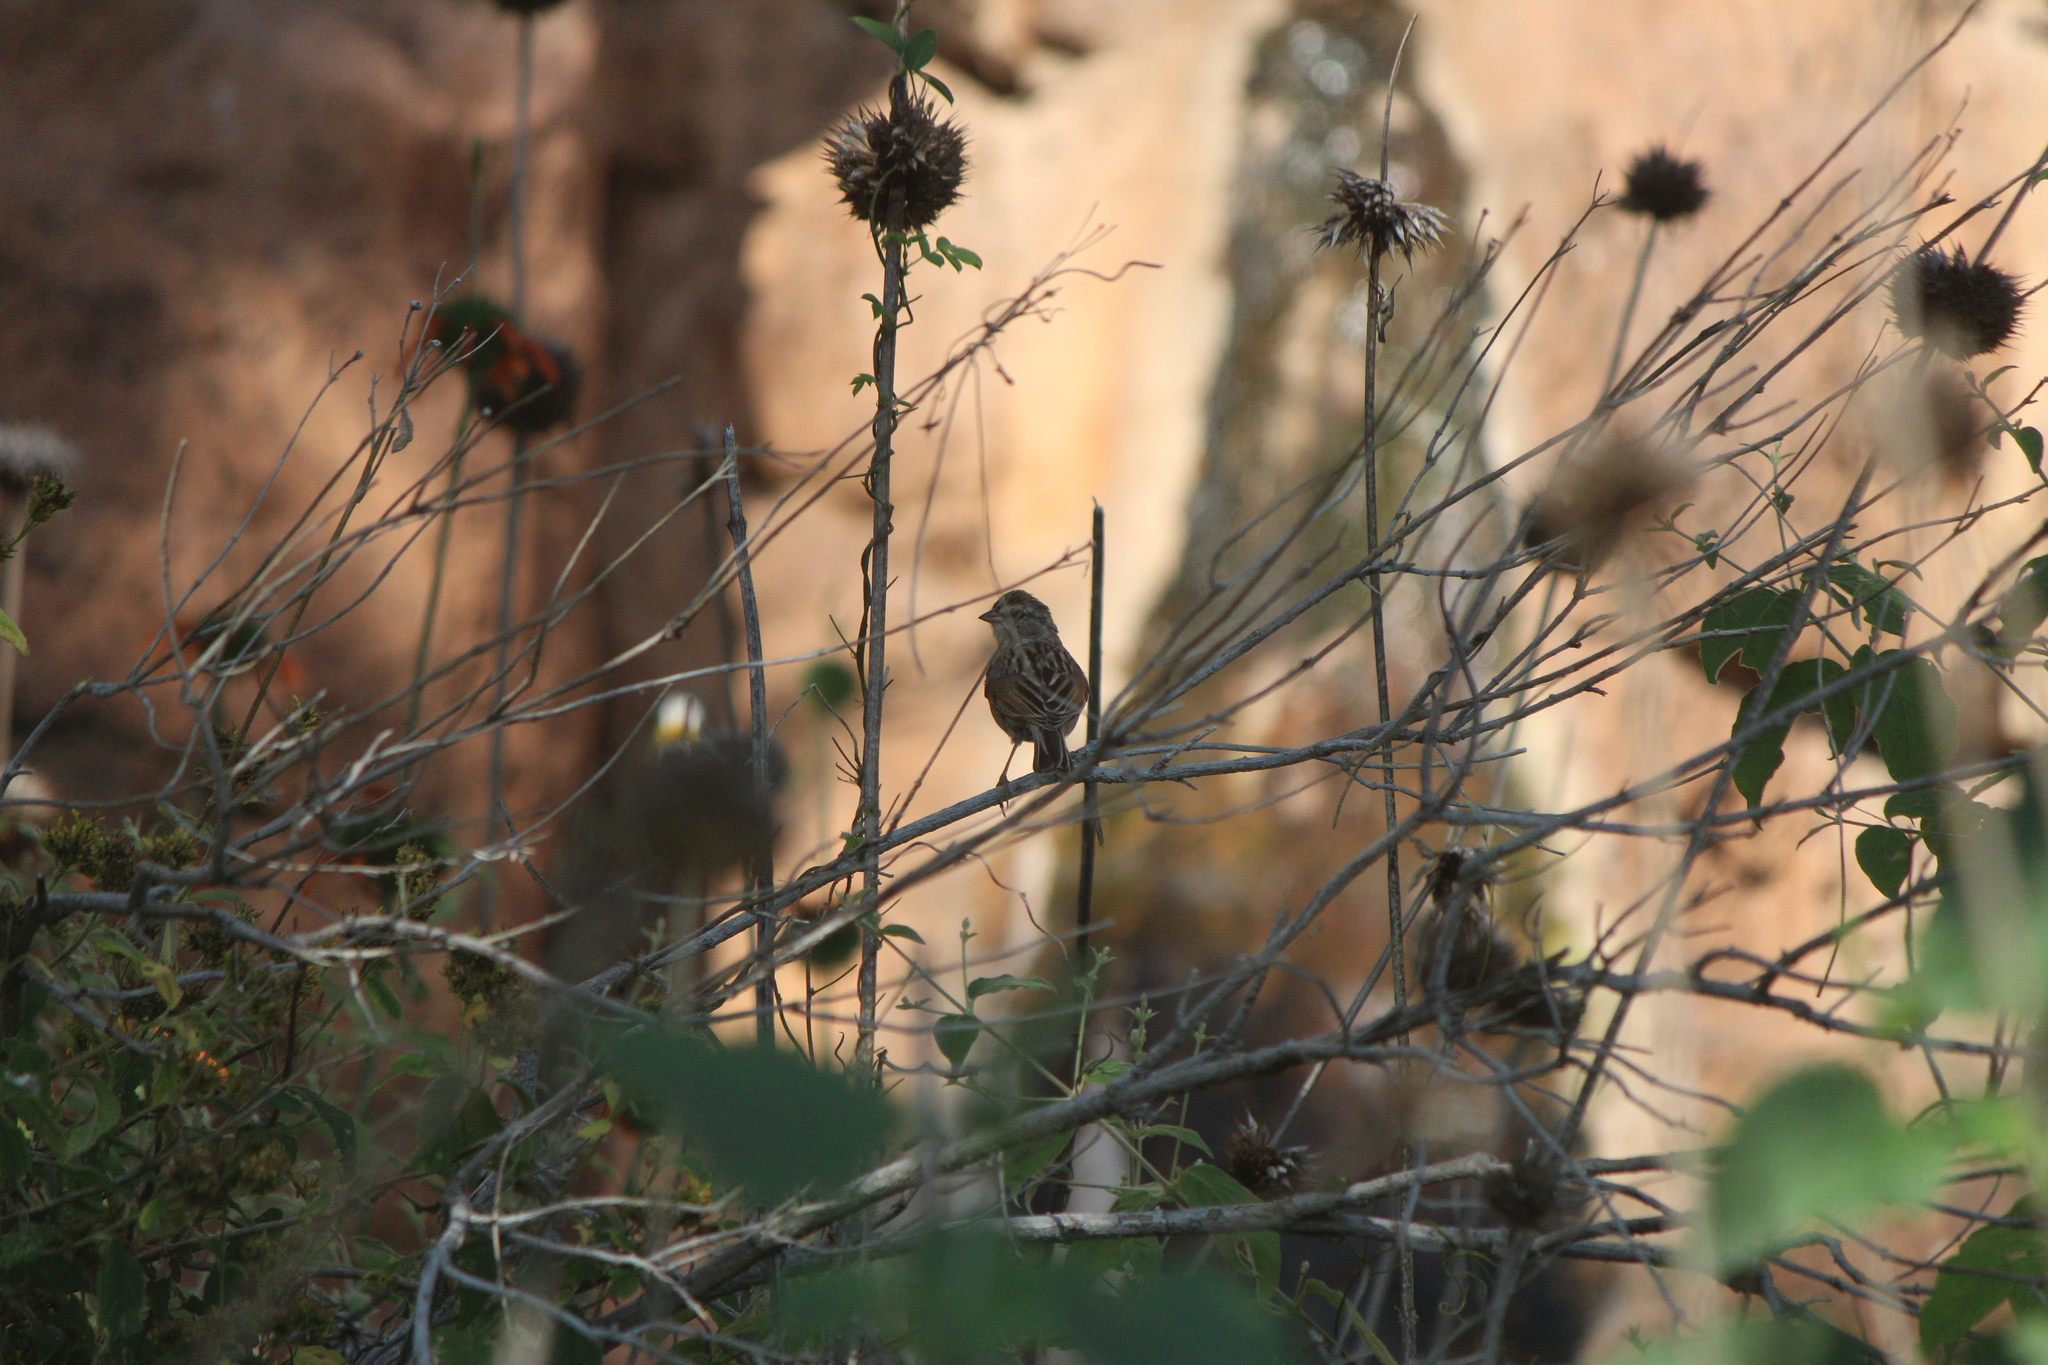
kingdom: Animalia
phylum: Chordata
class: Aves
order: Passeriformes
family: Passerellidae
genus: Spizella
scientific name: Spizella passerina
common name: Chipping sparrow
